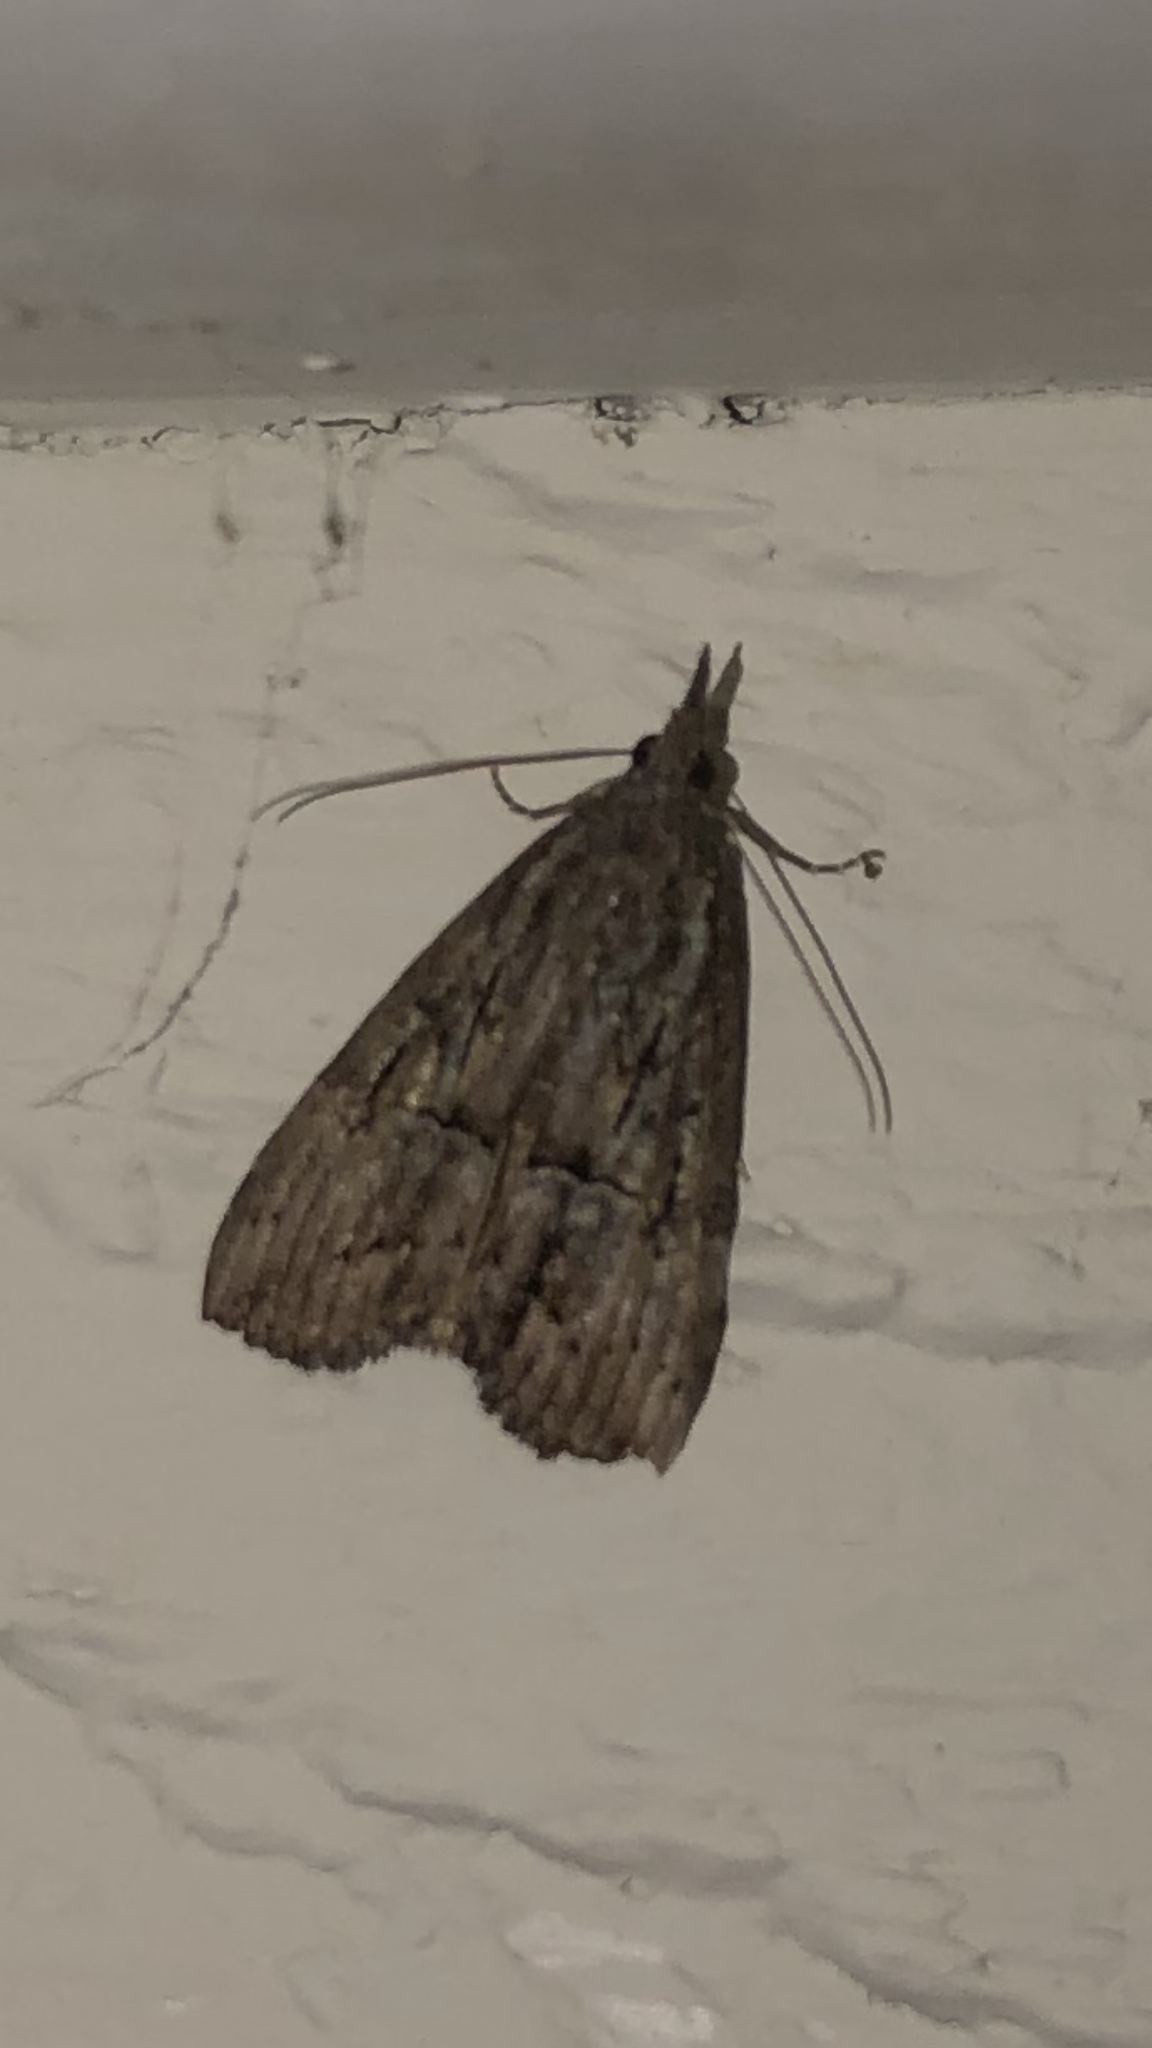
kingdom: Animalia
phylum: Arthropoda
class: Insecta
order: Lepidoptera
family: Erebidae
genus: Hypena
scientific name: Hypena scabra
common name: Green cloverworm
